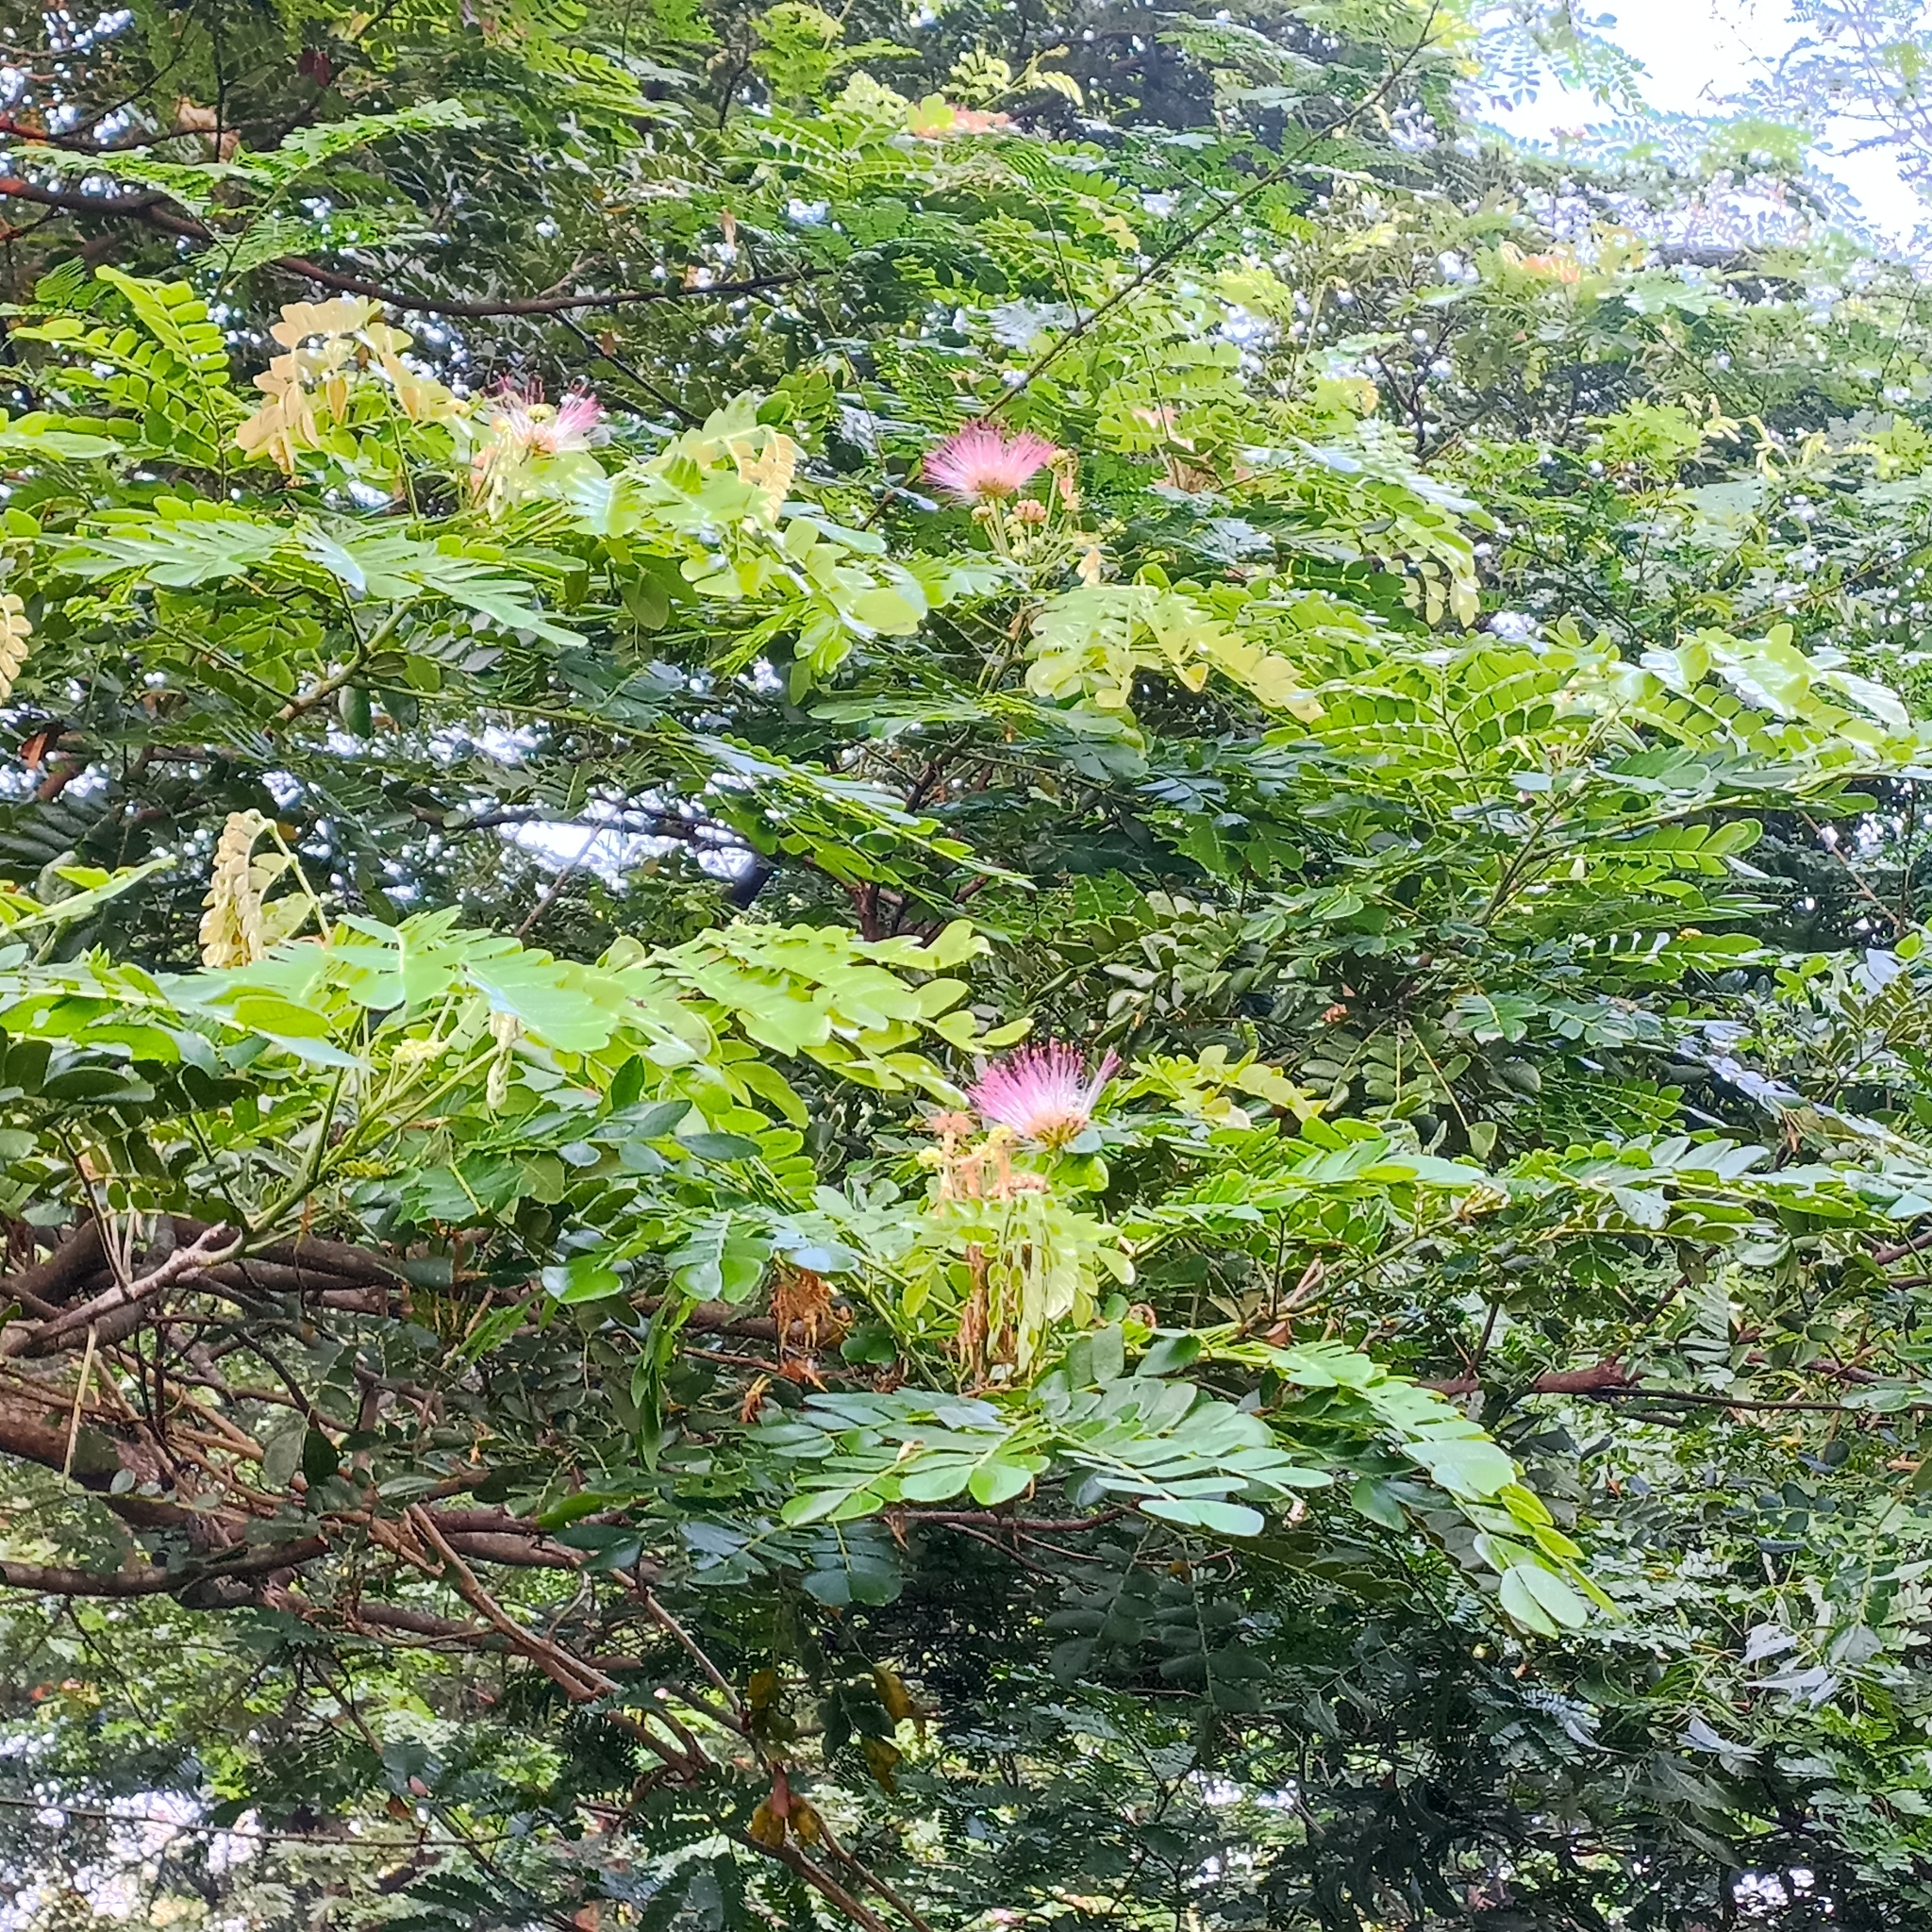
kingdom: Plantae
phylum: Tracheophyta
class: Magnoliopsida
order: Fabales
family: Fabaceae
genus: Samanea
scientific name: Samanea saman
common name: Raintree
